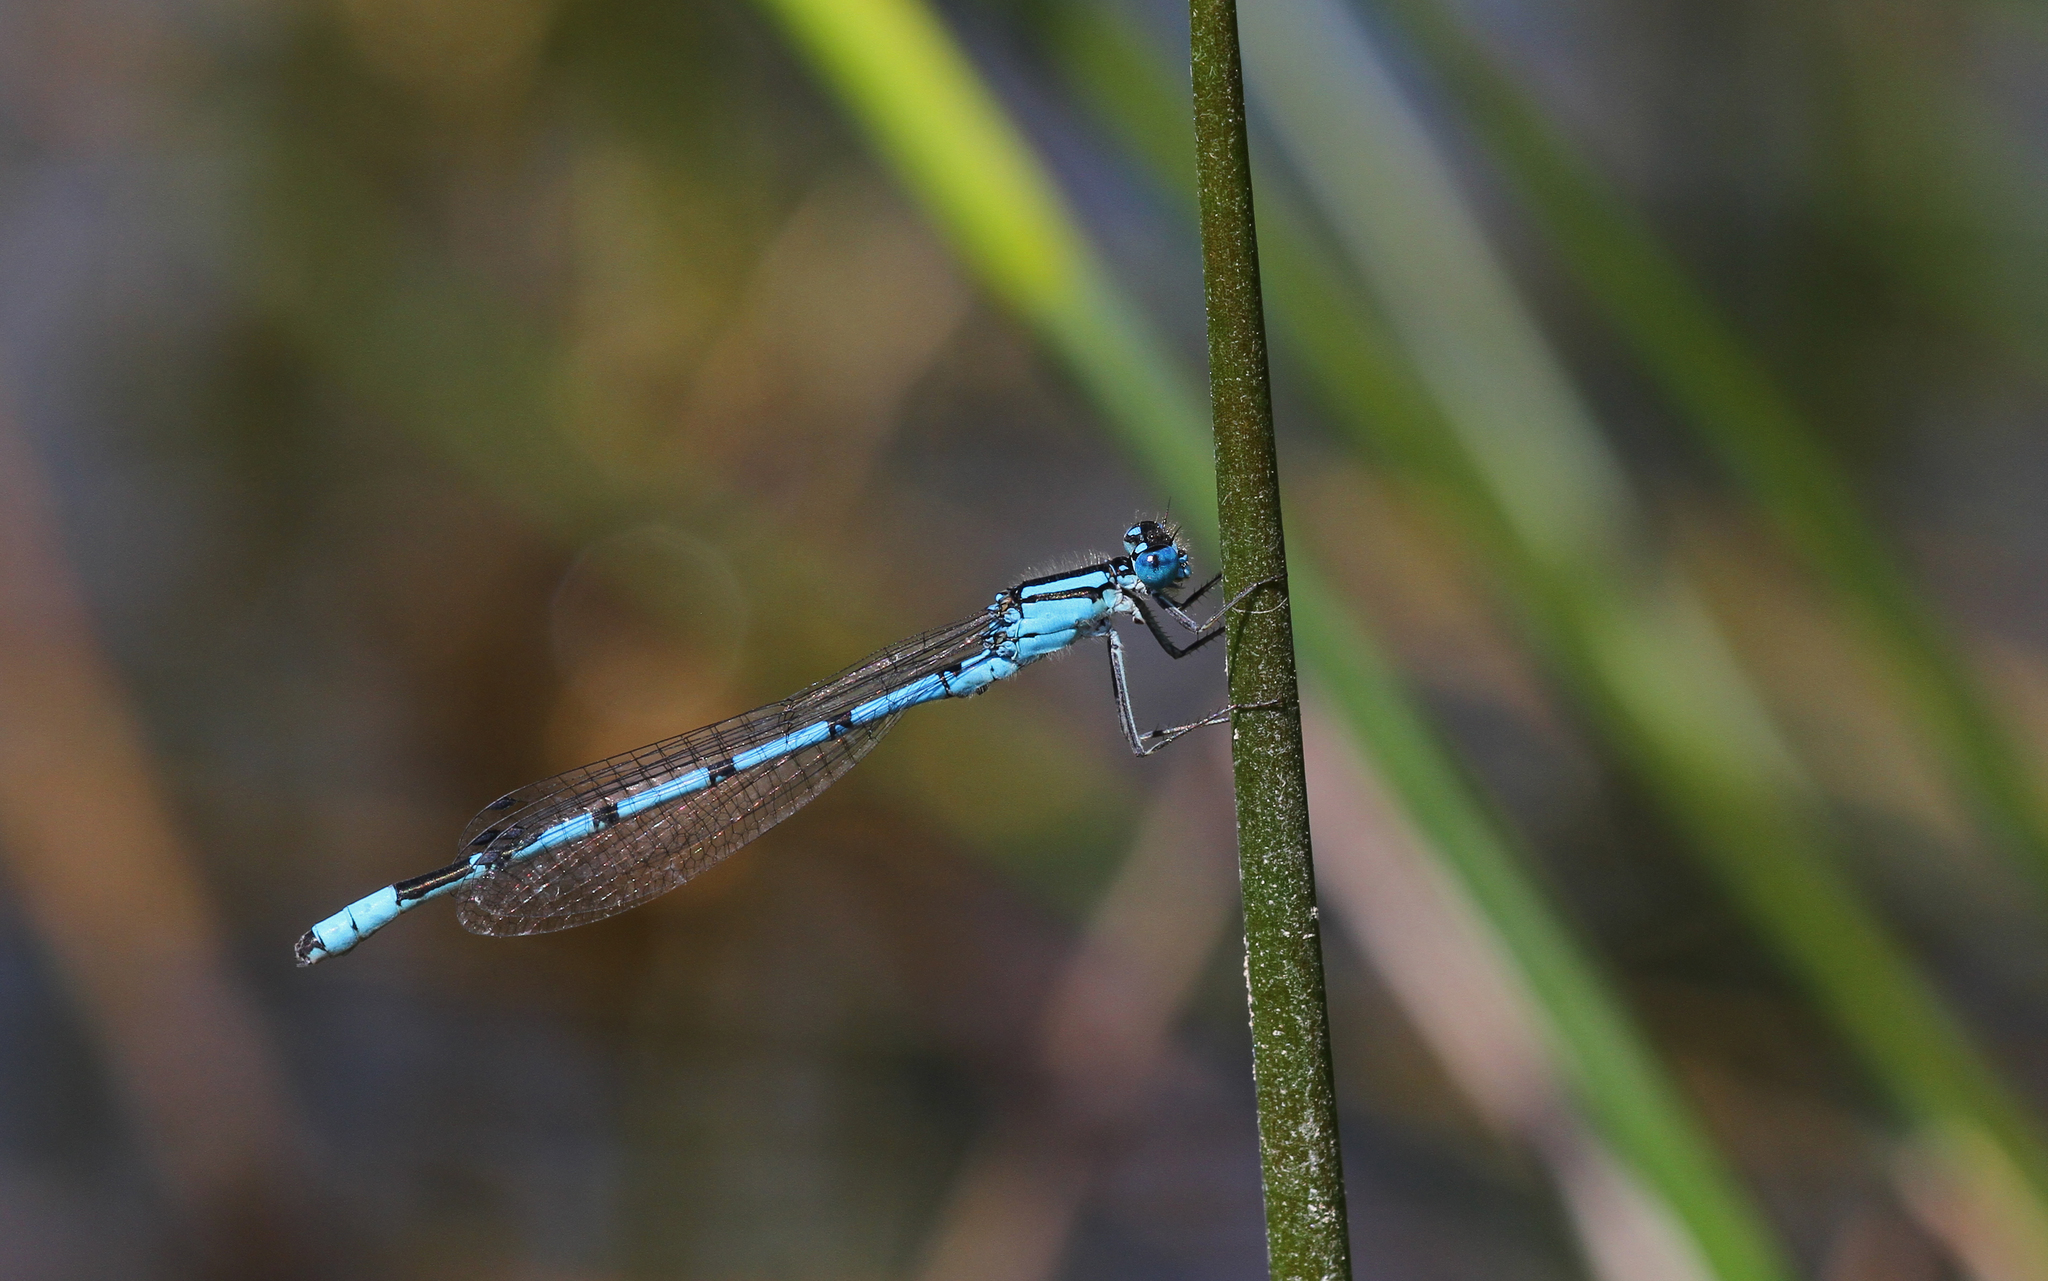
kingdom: Animalia
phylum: Arthropoda
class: Insecta
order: Odonata
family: Coenagrionidae
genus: Enallagma
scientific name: Enallagma cyathigerum
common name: Common blue damselfly
